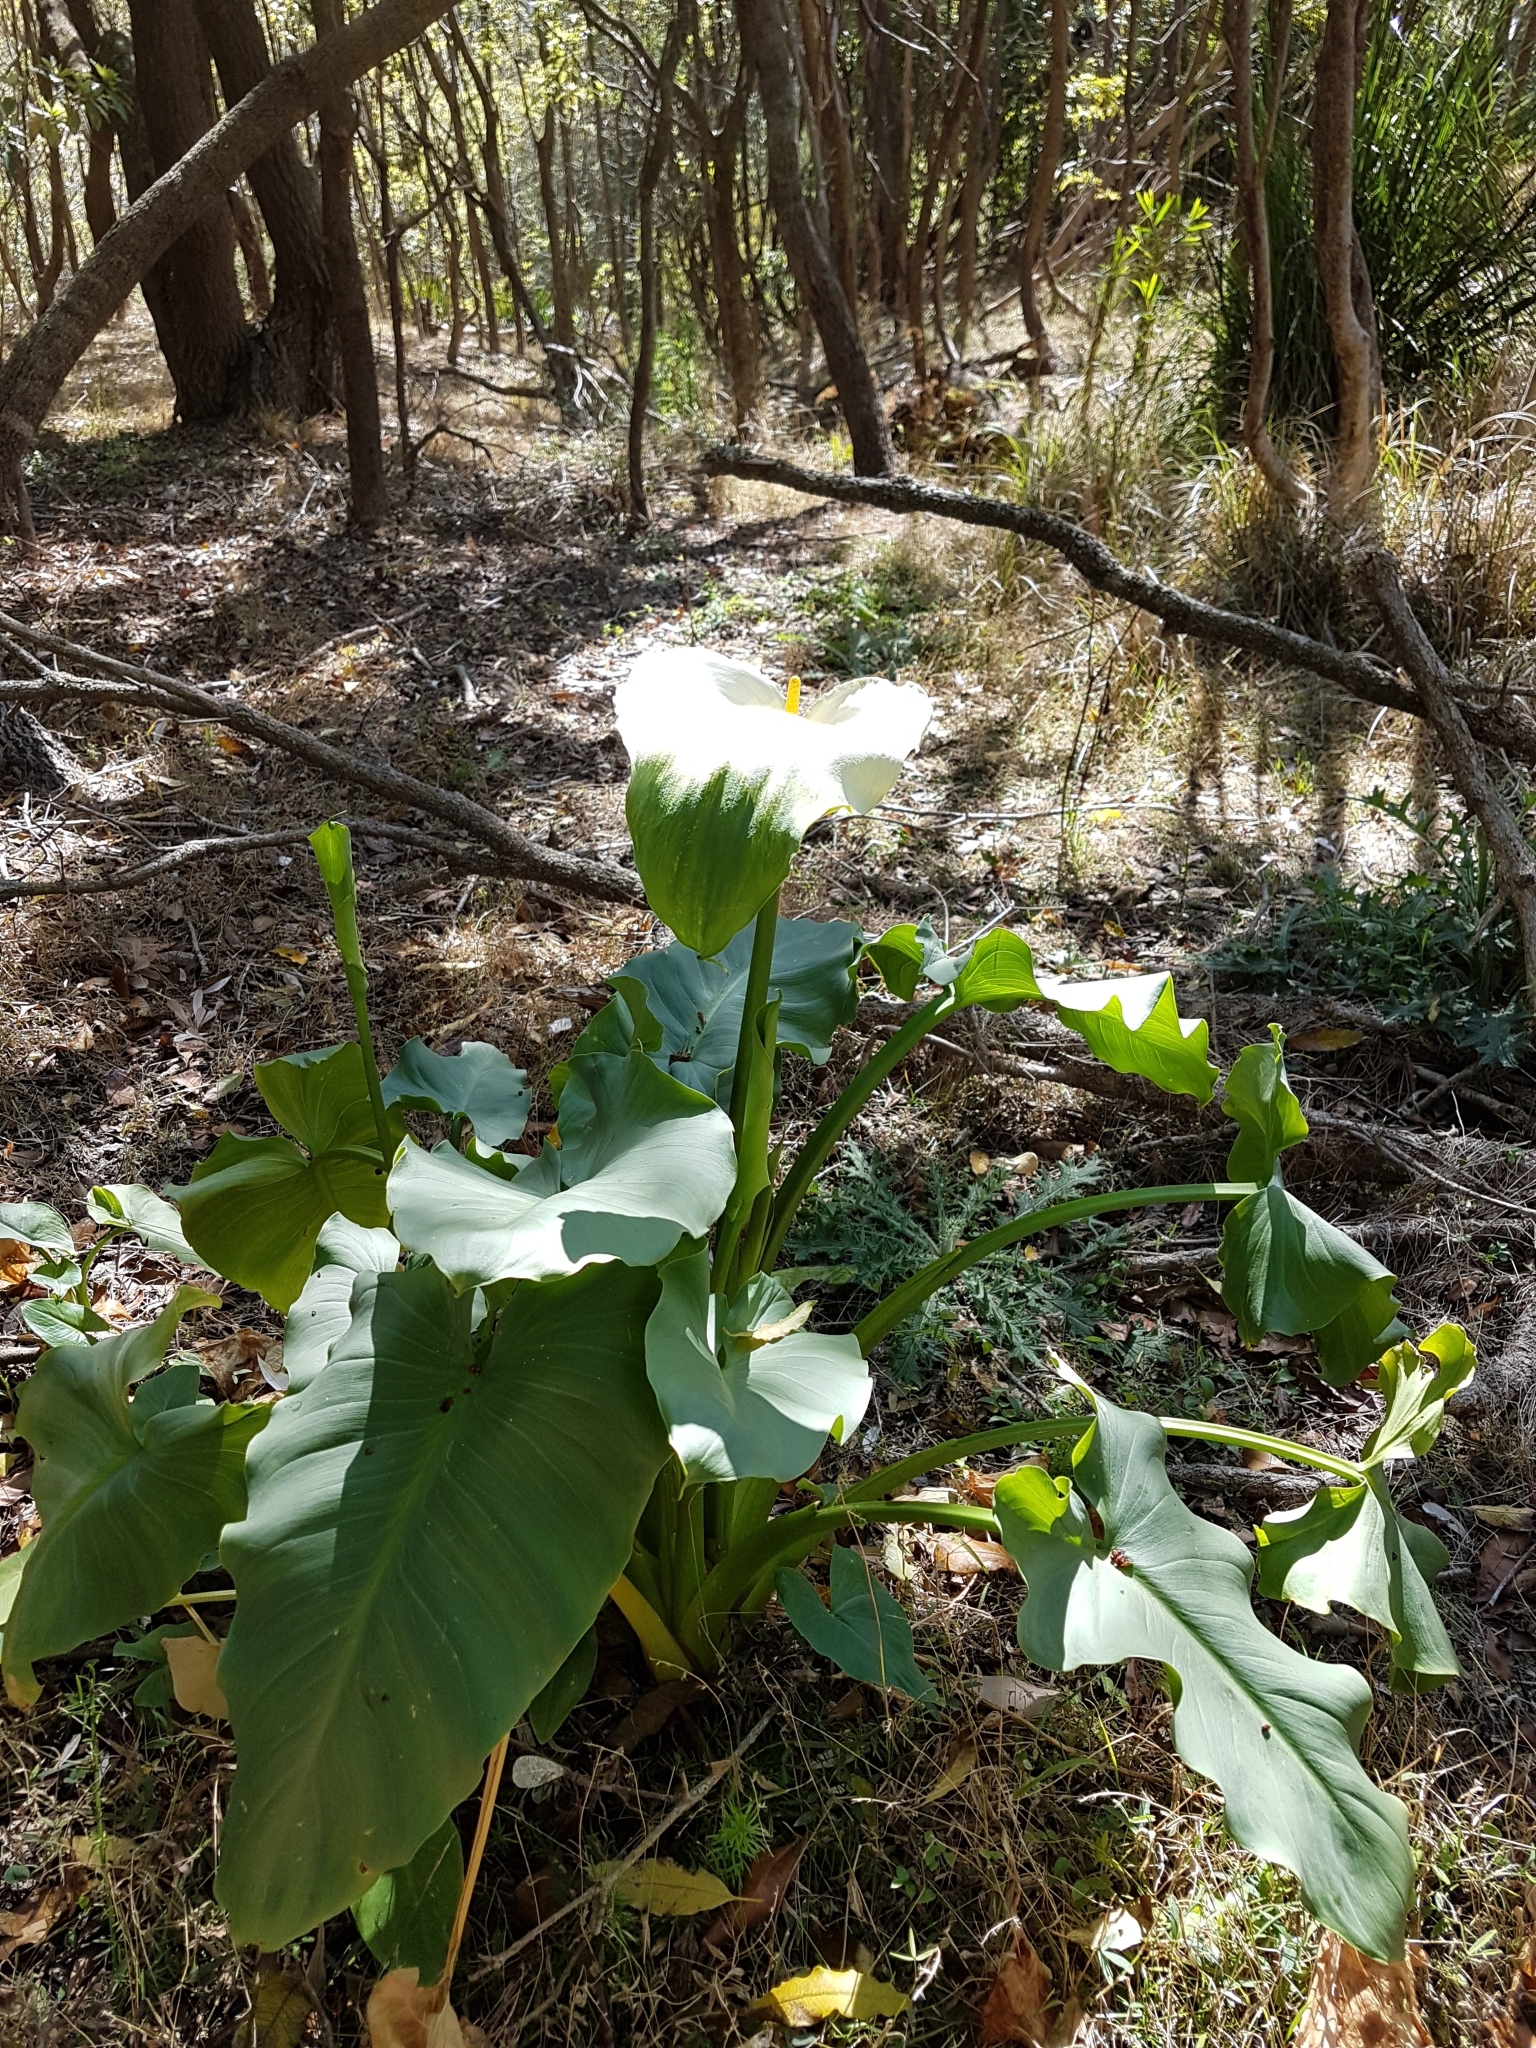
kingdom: Plantae
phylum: Tracheophyta
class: Liliopsida
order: Alismatales
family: Araceae
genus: Zantedeschia
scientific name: Zantedeschia aethiopica
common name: Altar-lily
